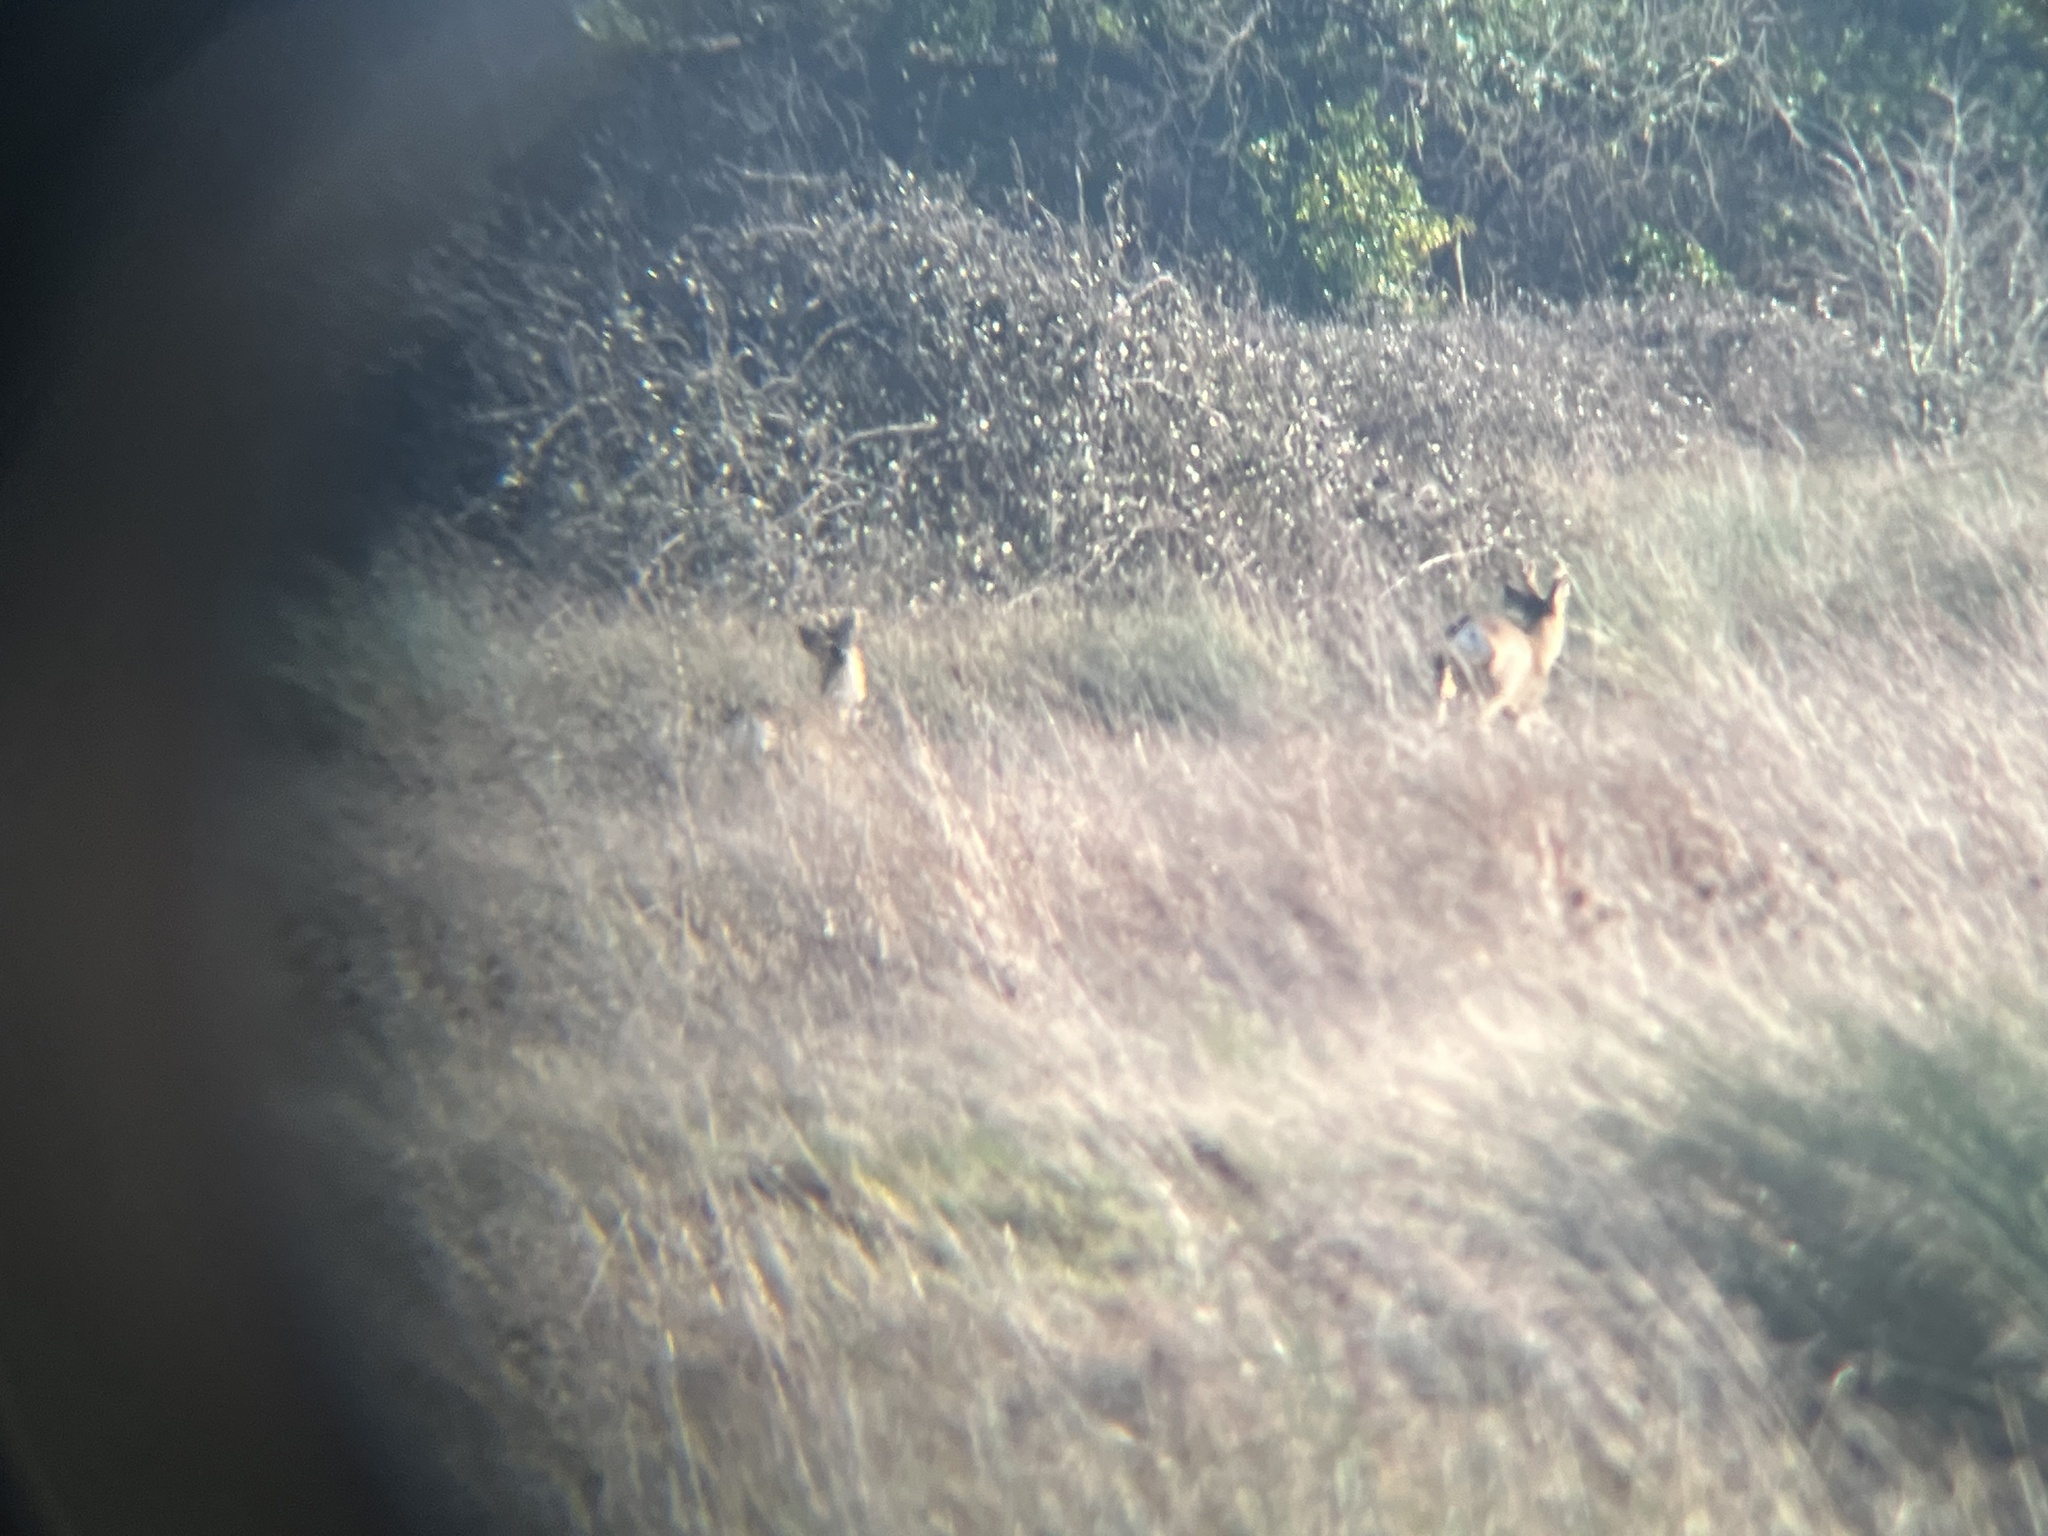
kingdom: Animalia
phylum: Chordata
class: Mammalia
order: Artiodactyla
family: Cervidae
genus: Capreolus
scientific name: Capreolus capreolus
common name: Western roe deer
